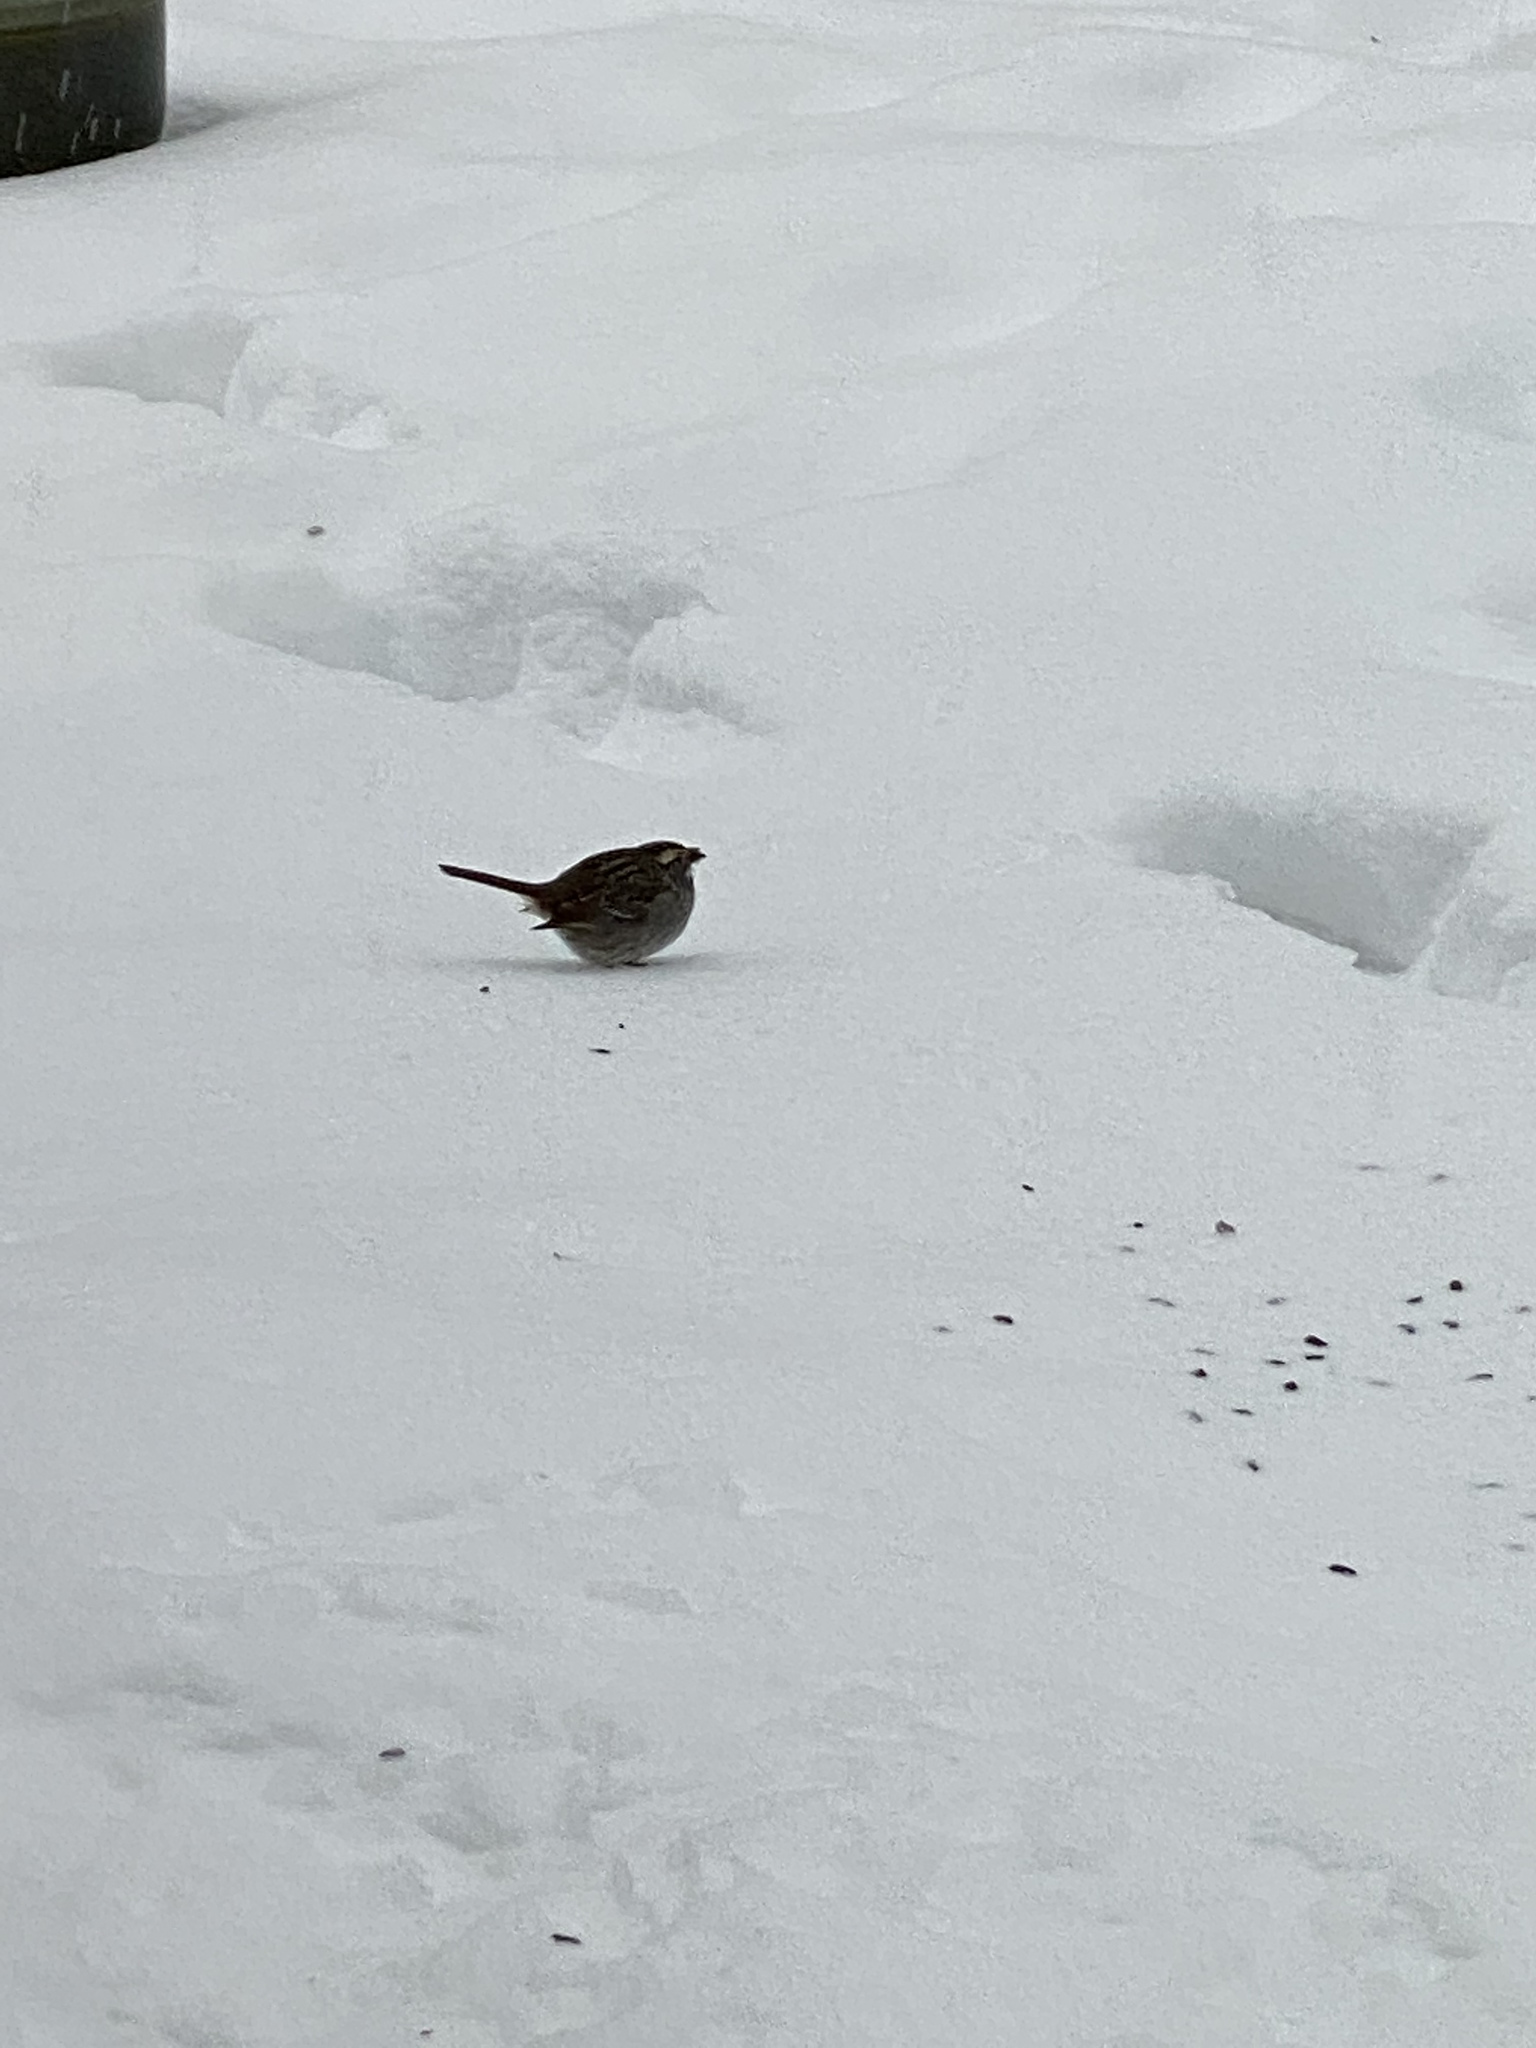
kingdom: Animalia
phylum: Chordata
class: Aves
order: Passeriformes
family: Passerellidae
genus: Zonotrichia
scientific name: Zonotrichia albicollis
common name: White-throated sparrow
